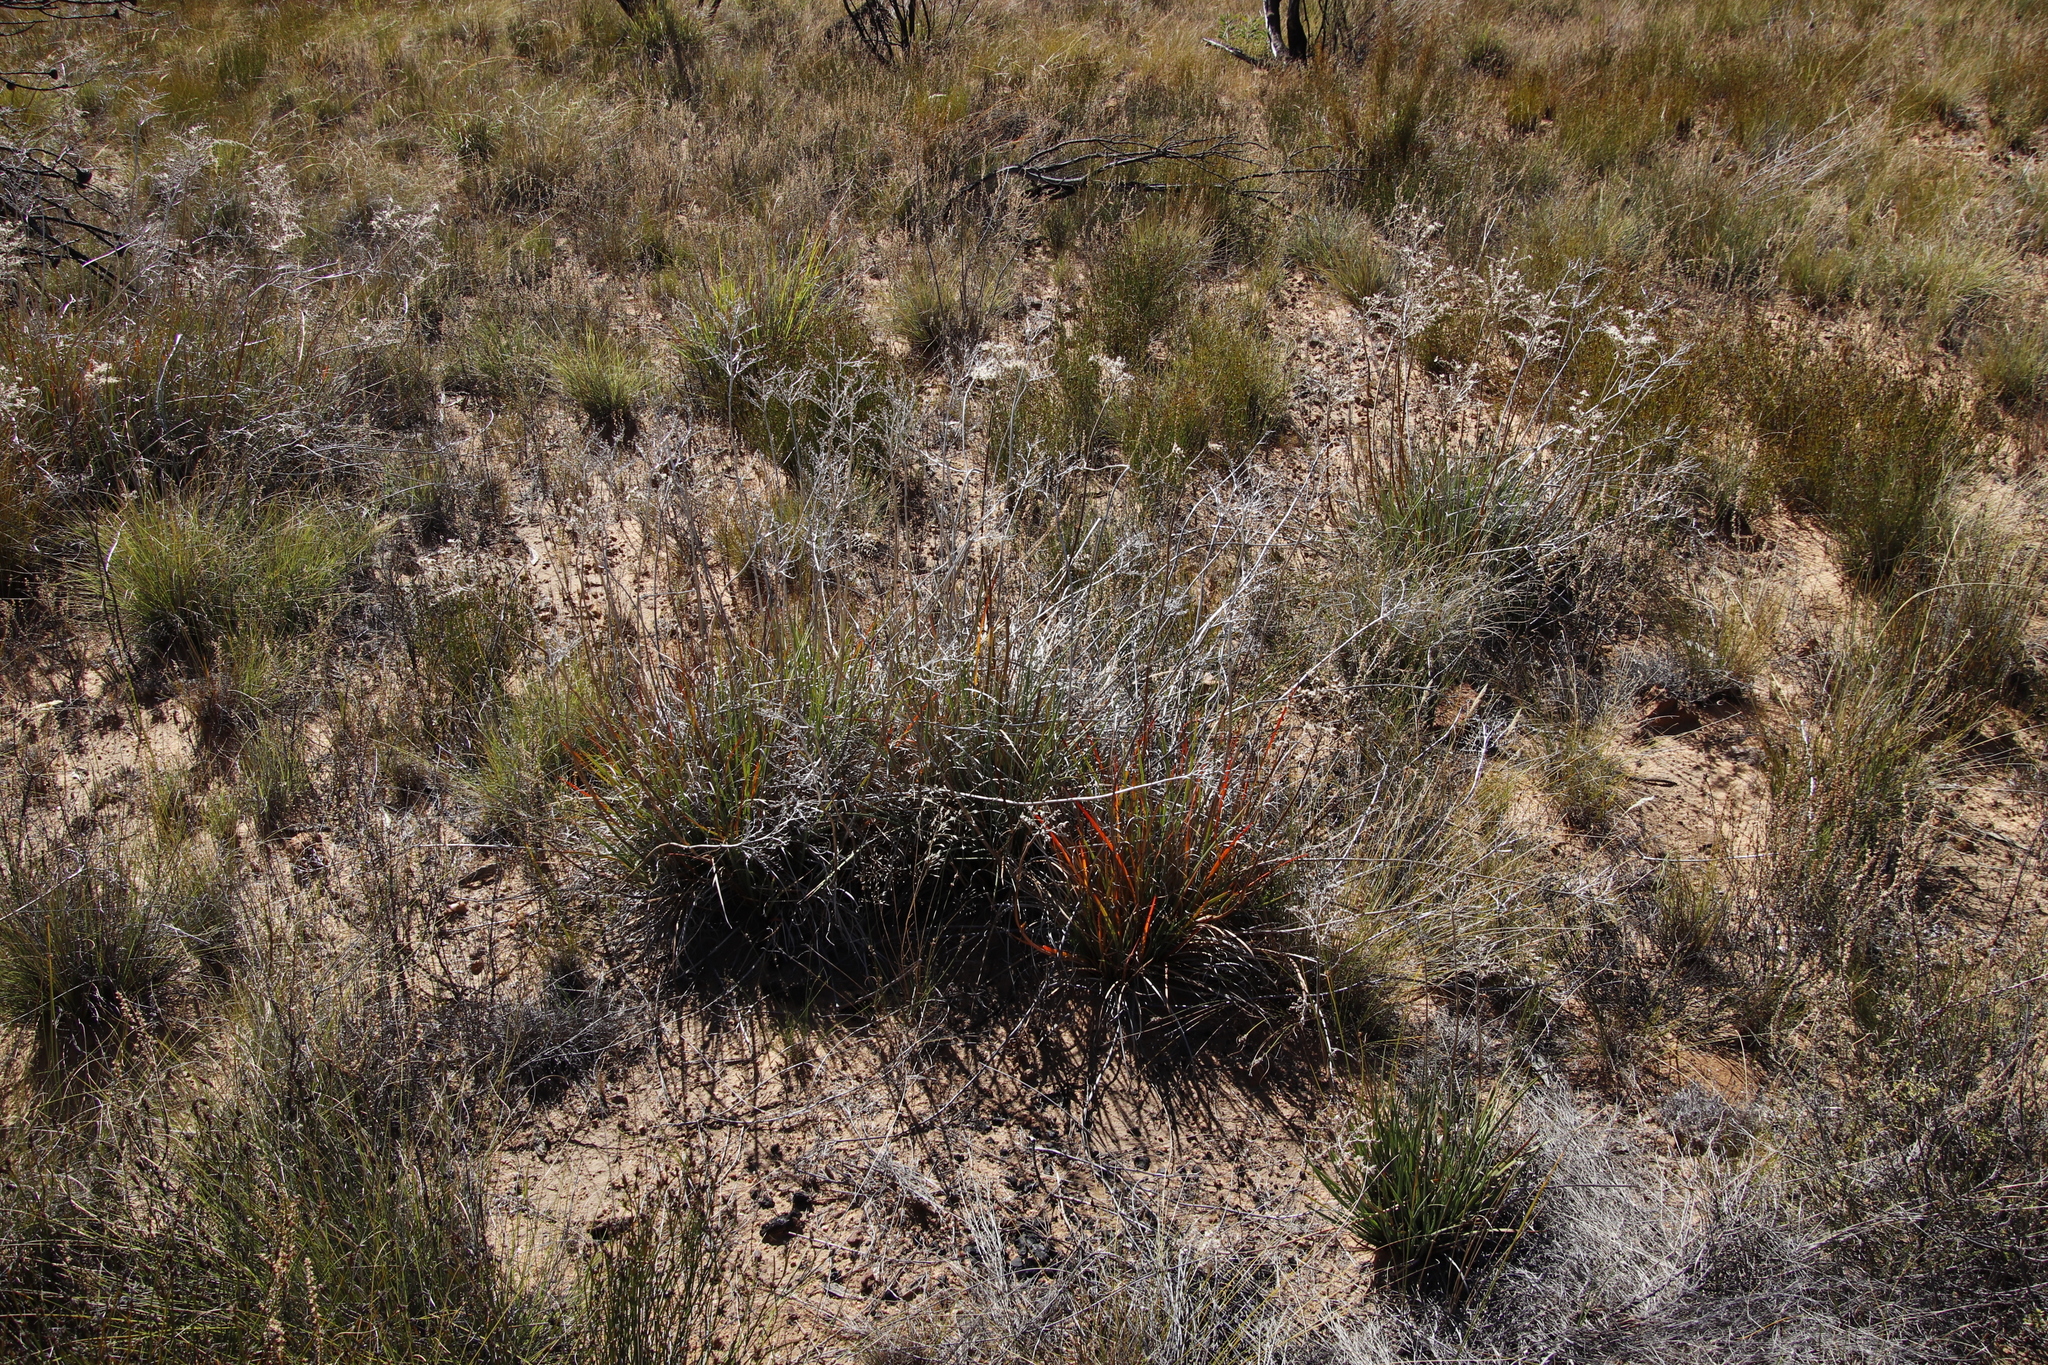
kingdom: Plantae
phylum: Tracheophyta
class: Liliopsida
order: Commelinales
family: Haemodoraceae
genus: Dilatris
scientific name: Dilatris ixioides
